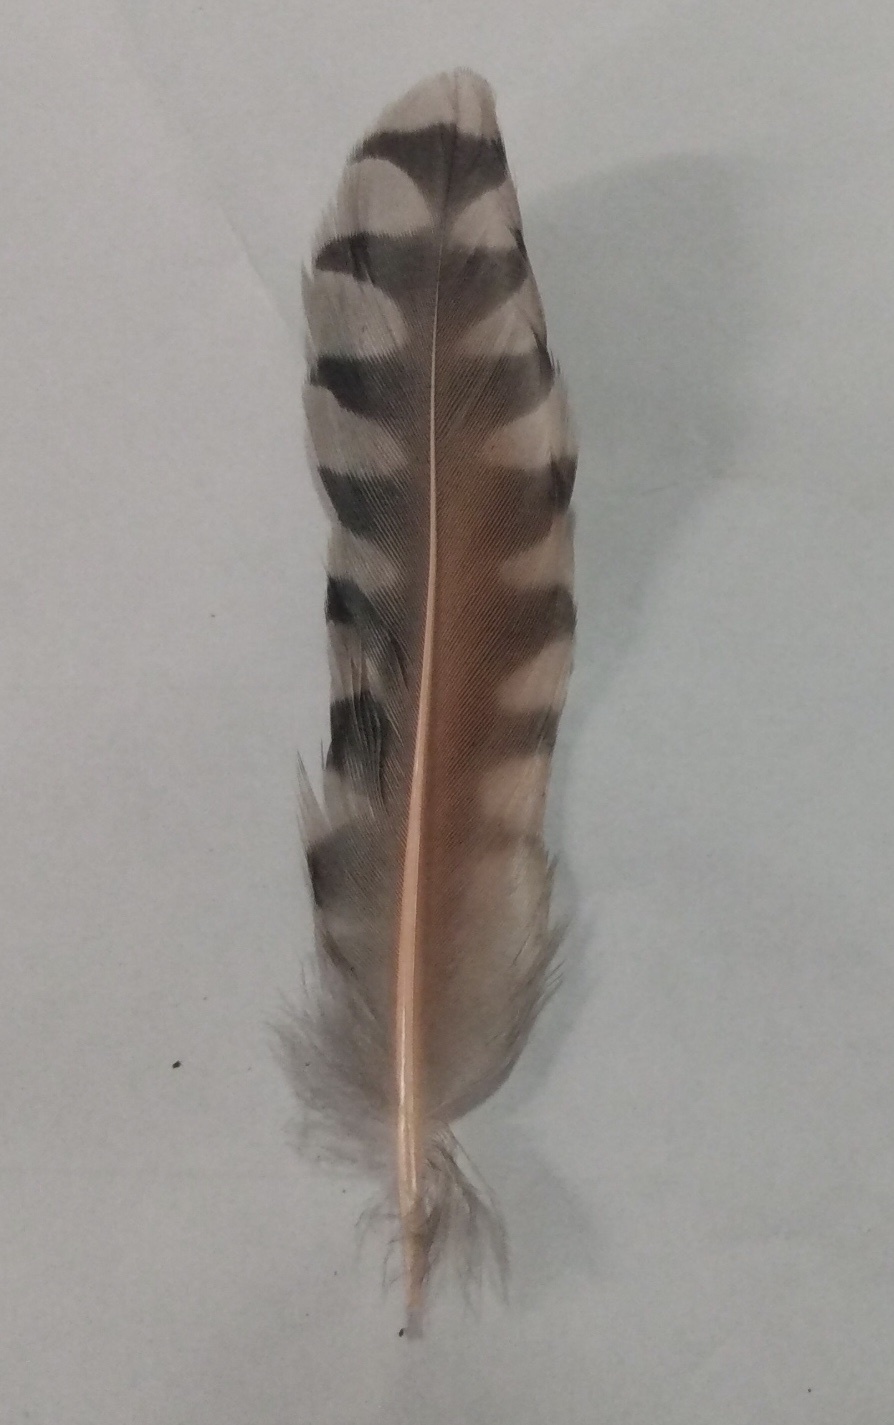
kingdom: Animalia
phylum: Chordata
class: Aves
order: Piciformes
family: Picidae
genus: Colaptes
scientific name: Colaptes auratus
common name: Northern flicker
